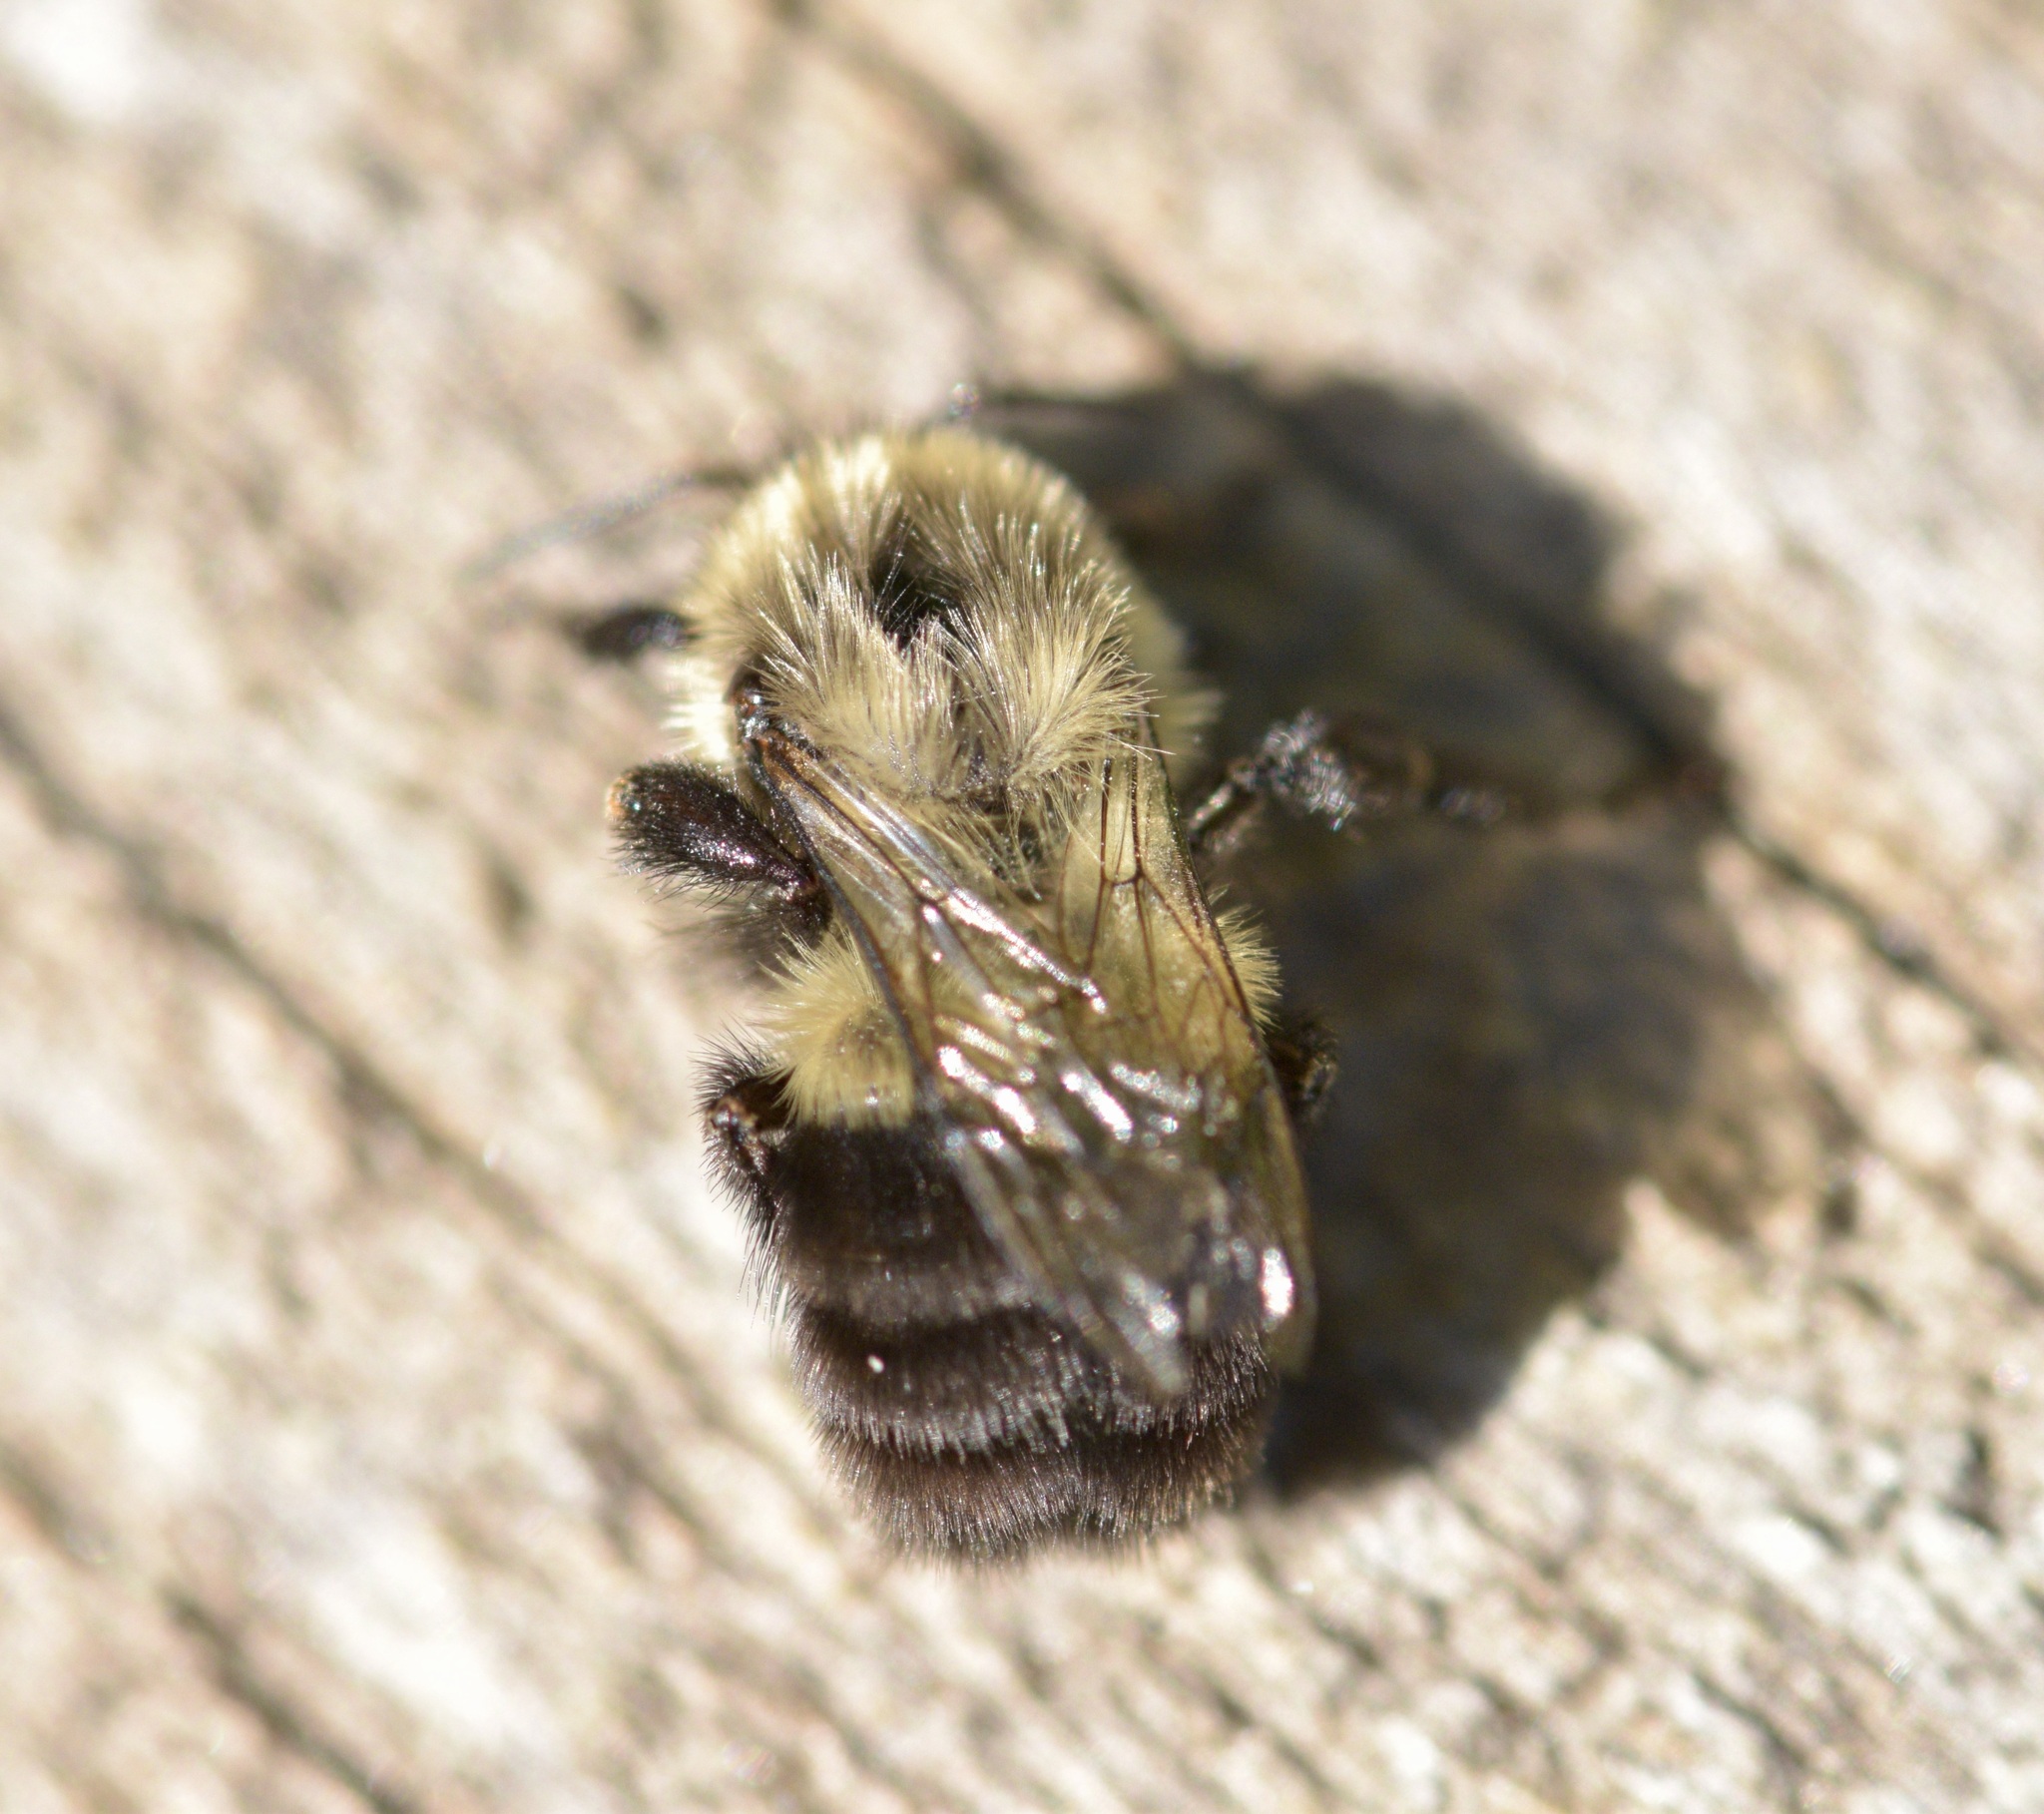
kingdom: Animalia
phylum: Arthropoda
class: Insecta
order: Hymenoptera
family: Apidae
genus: Bombus
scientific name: Bombus impatiens
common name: Common eastern bumble bee
